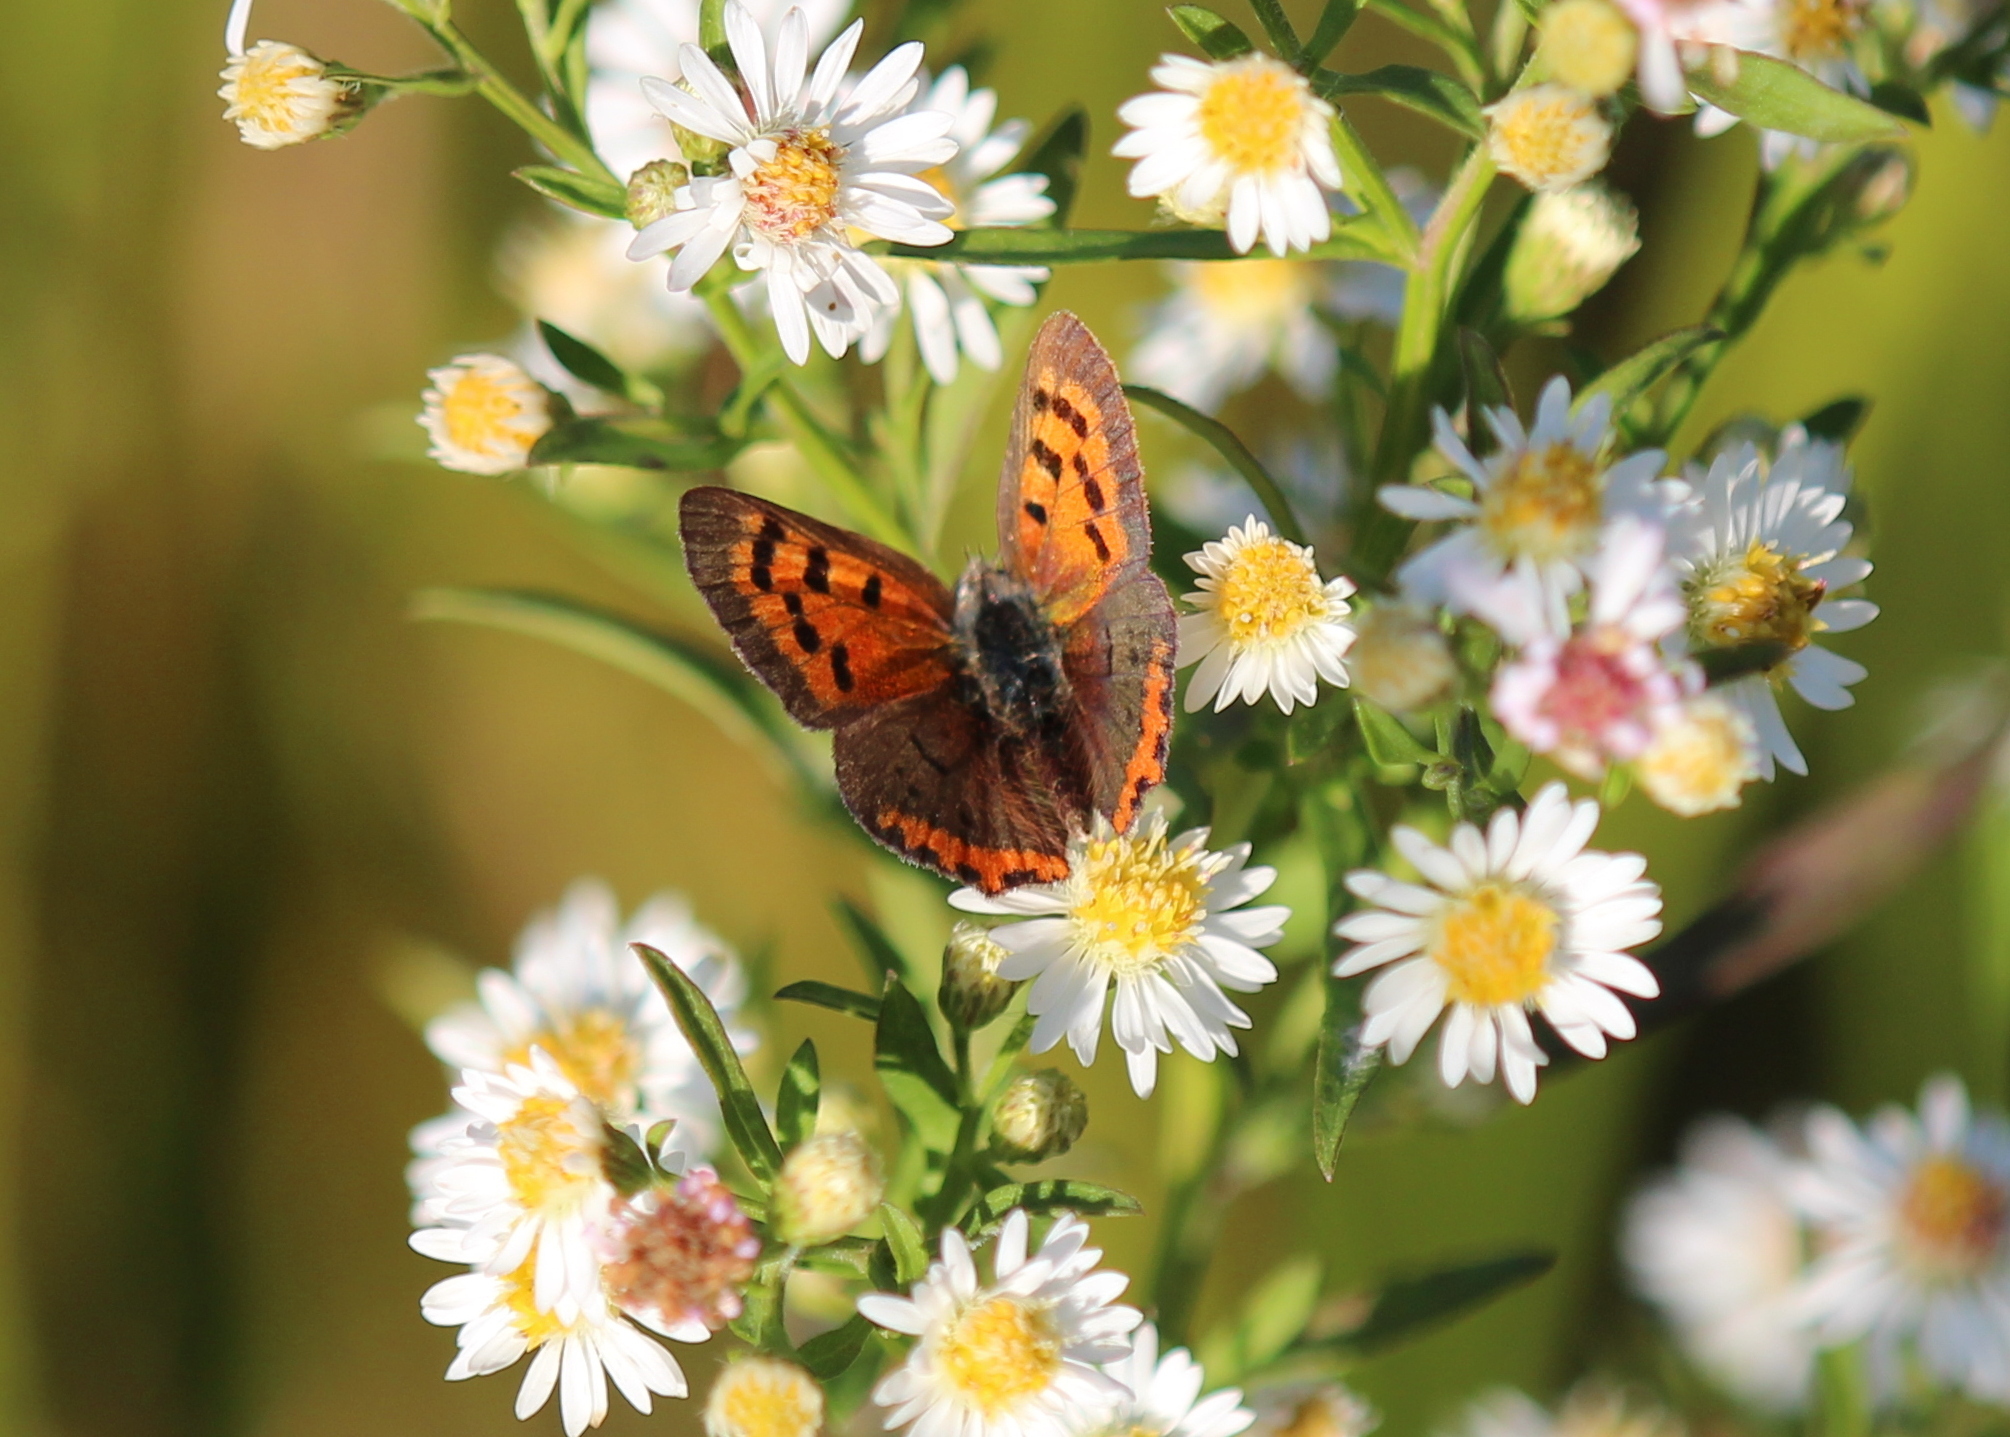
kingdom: Animalia
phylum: Arthropoda
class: Insecta
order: Lepidoptera
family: Lycaenidae
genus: Lycaena
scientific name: Lycaena hypophlaeas
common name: American copper
